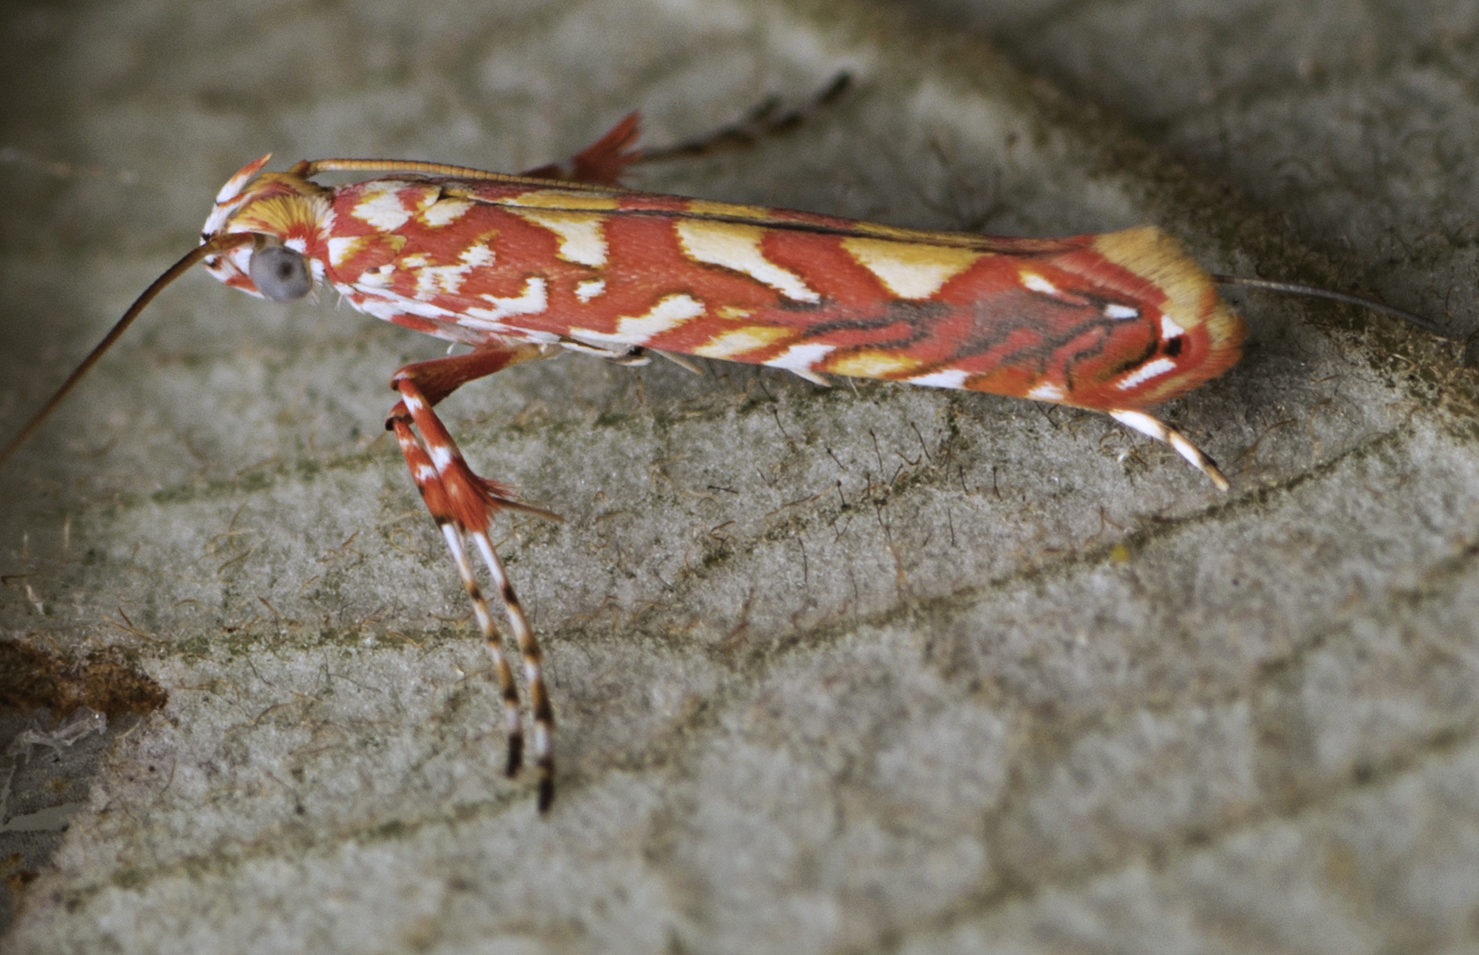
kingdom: Animalia
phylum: Arthropoda
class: Insecta
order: Lepidoptera
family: Gracillariidae
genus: Macarostola
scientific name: Macarostola formosa
